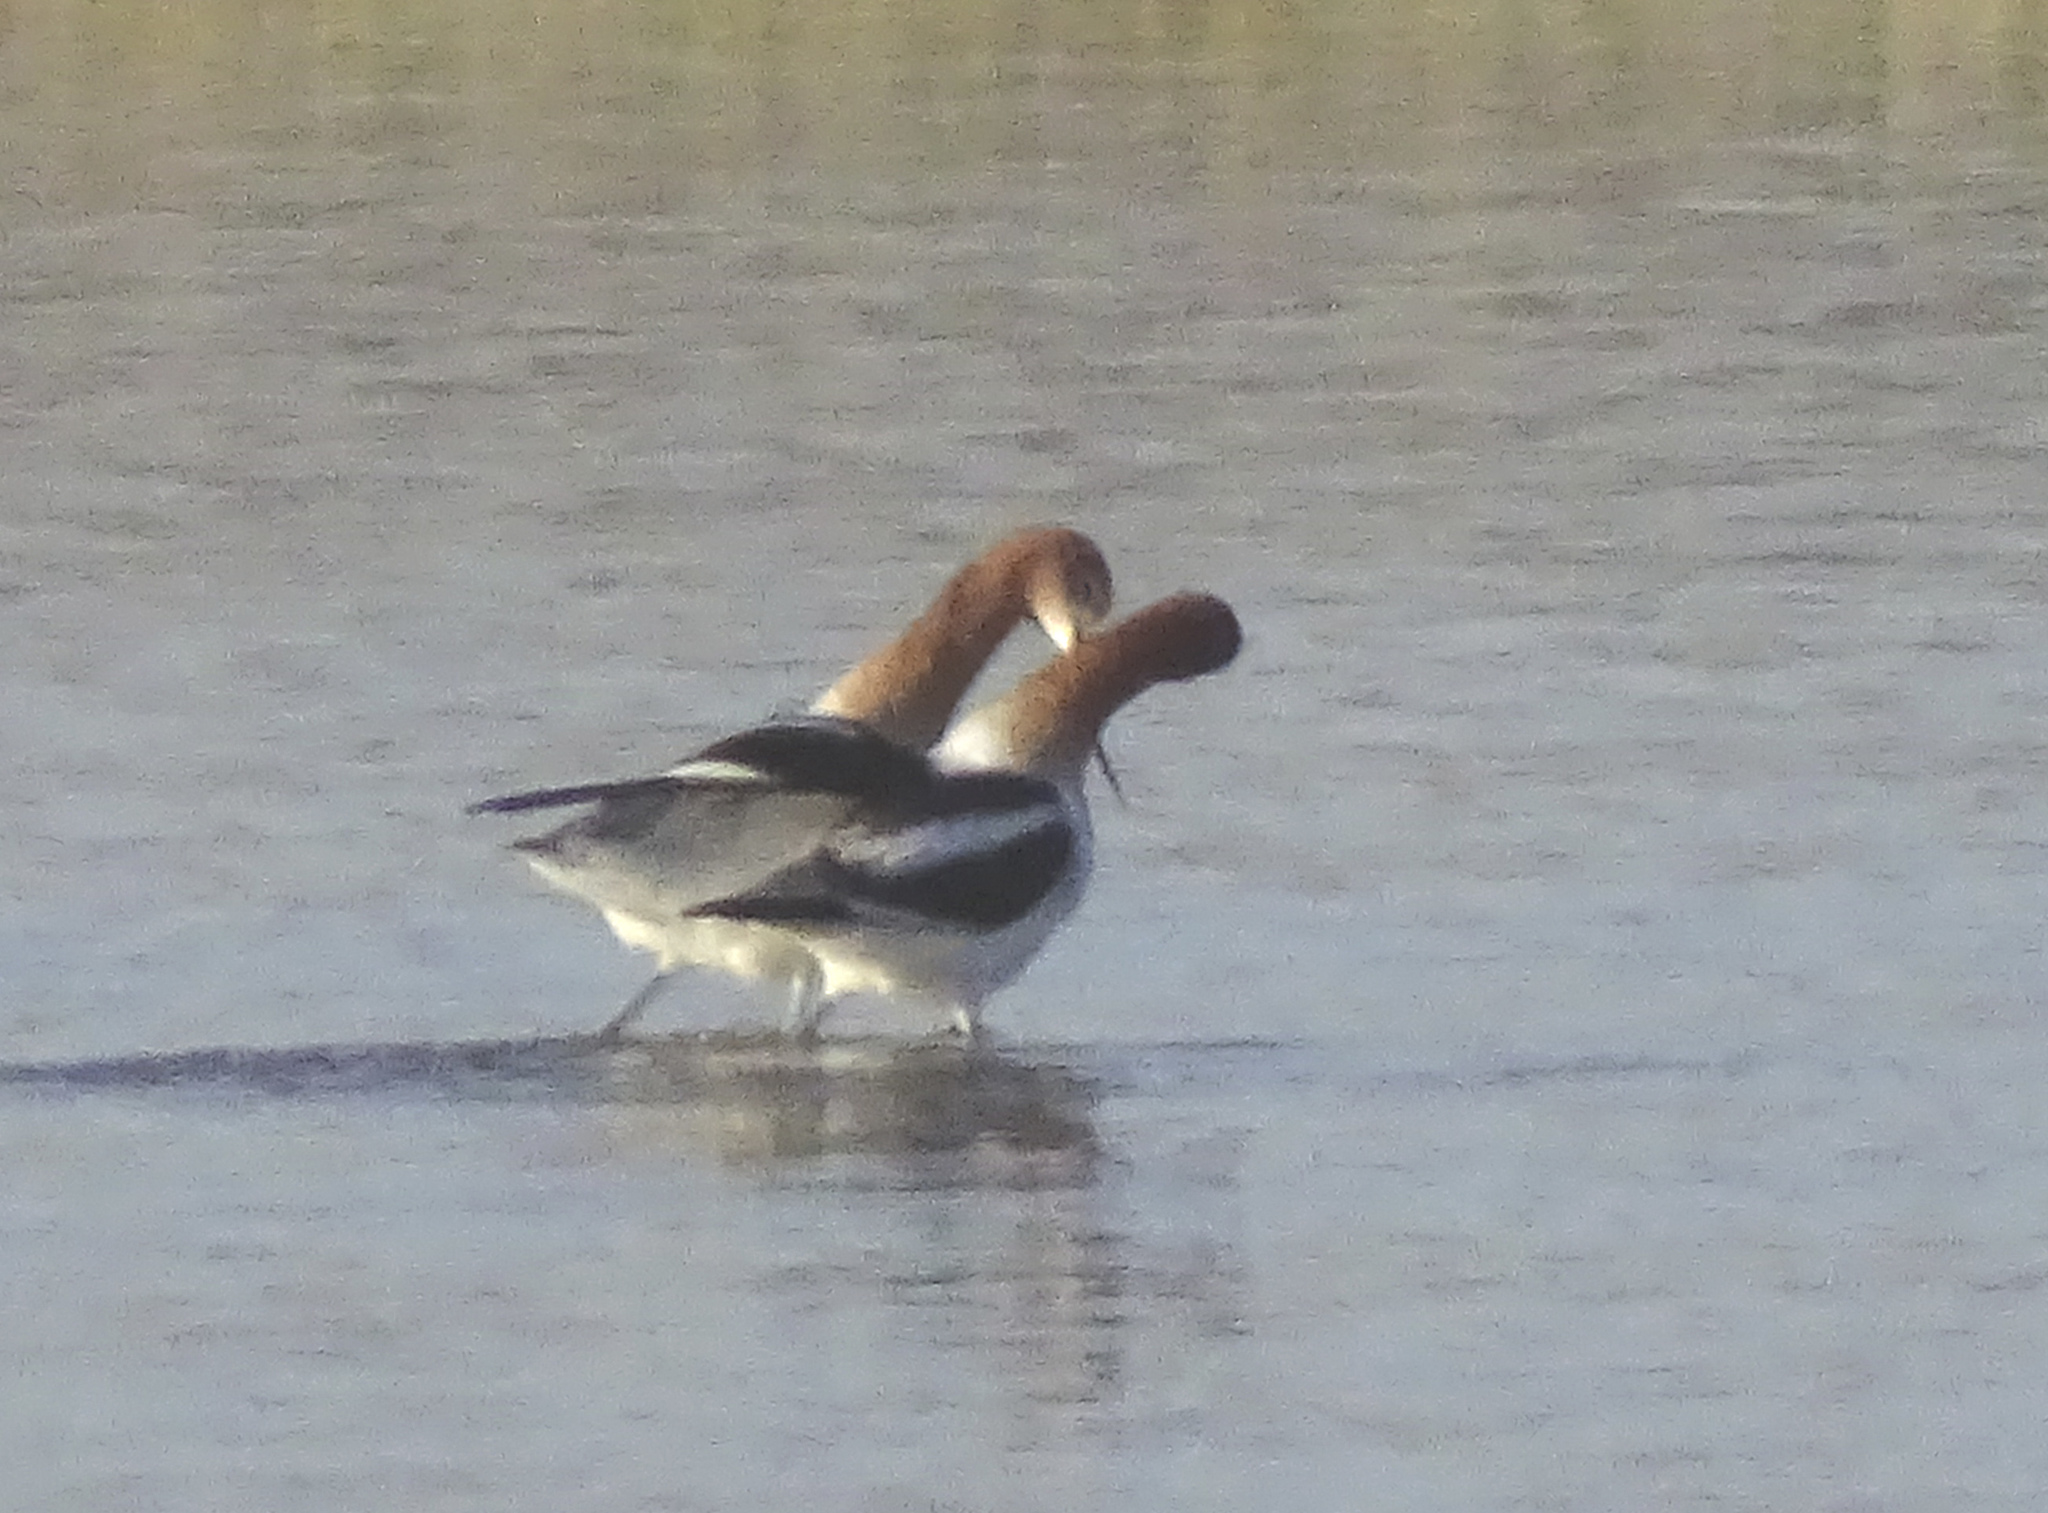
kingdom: Animalia
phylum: Chordata
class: Aves
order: Charadriiformes
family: Recurvirostridae
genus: Recurvirostra
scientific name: Recurvirostra americana
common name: American avocet
